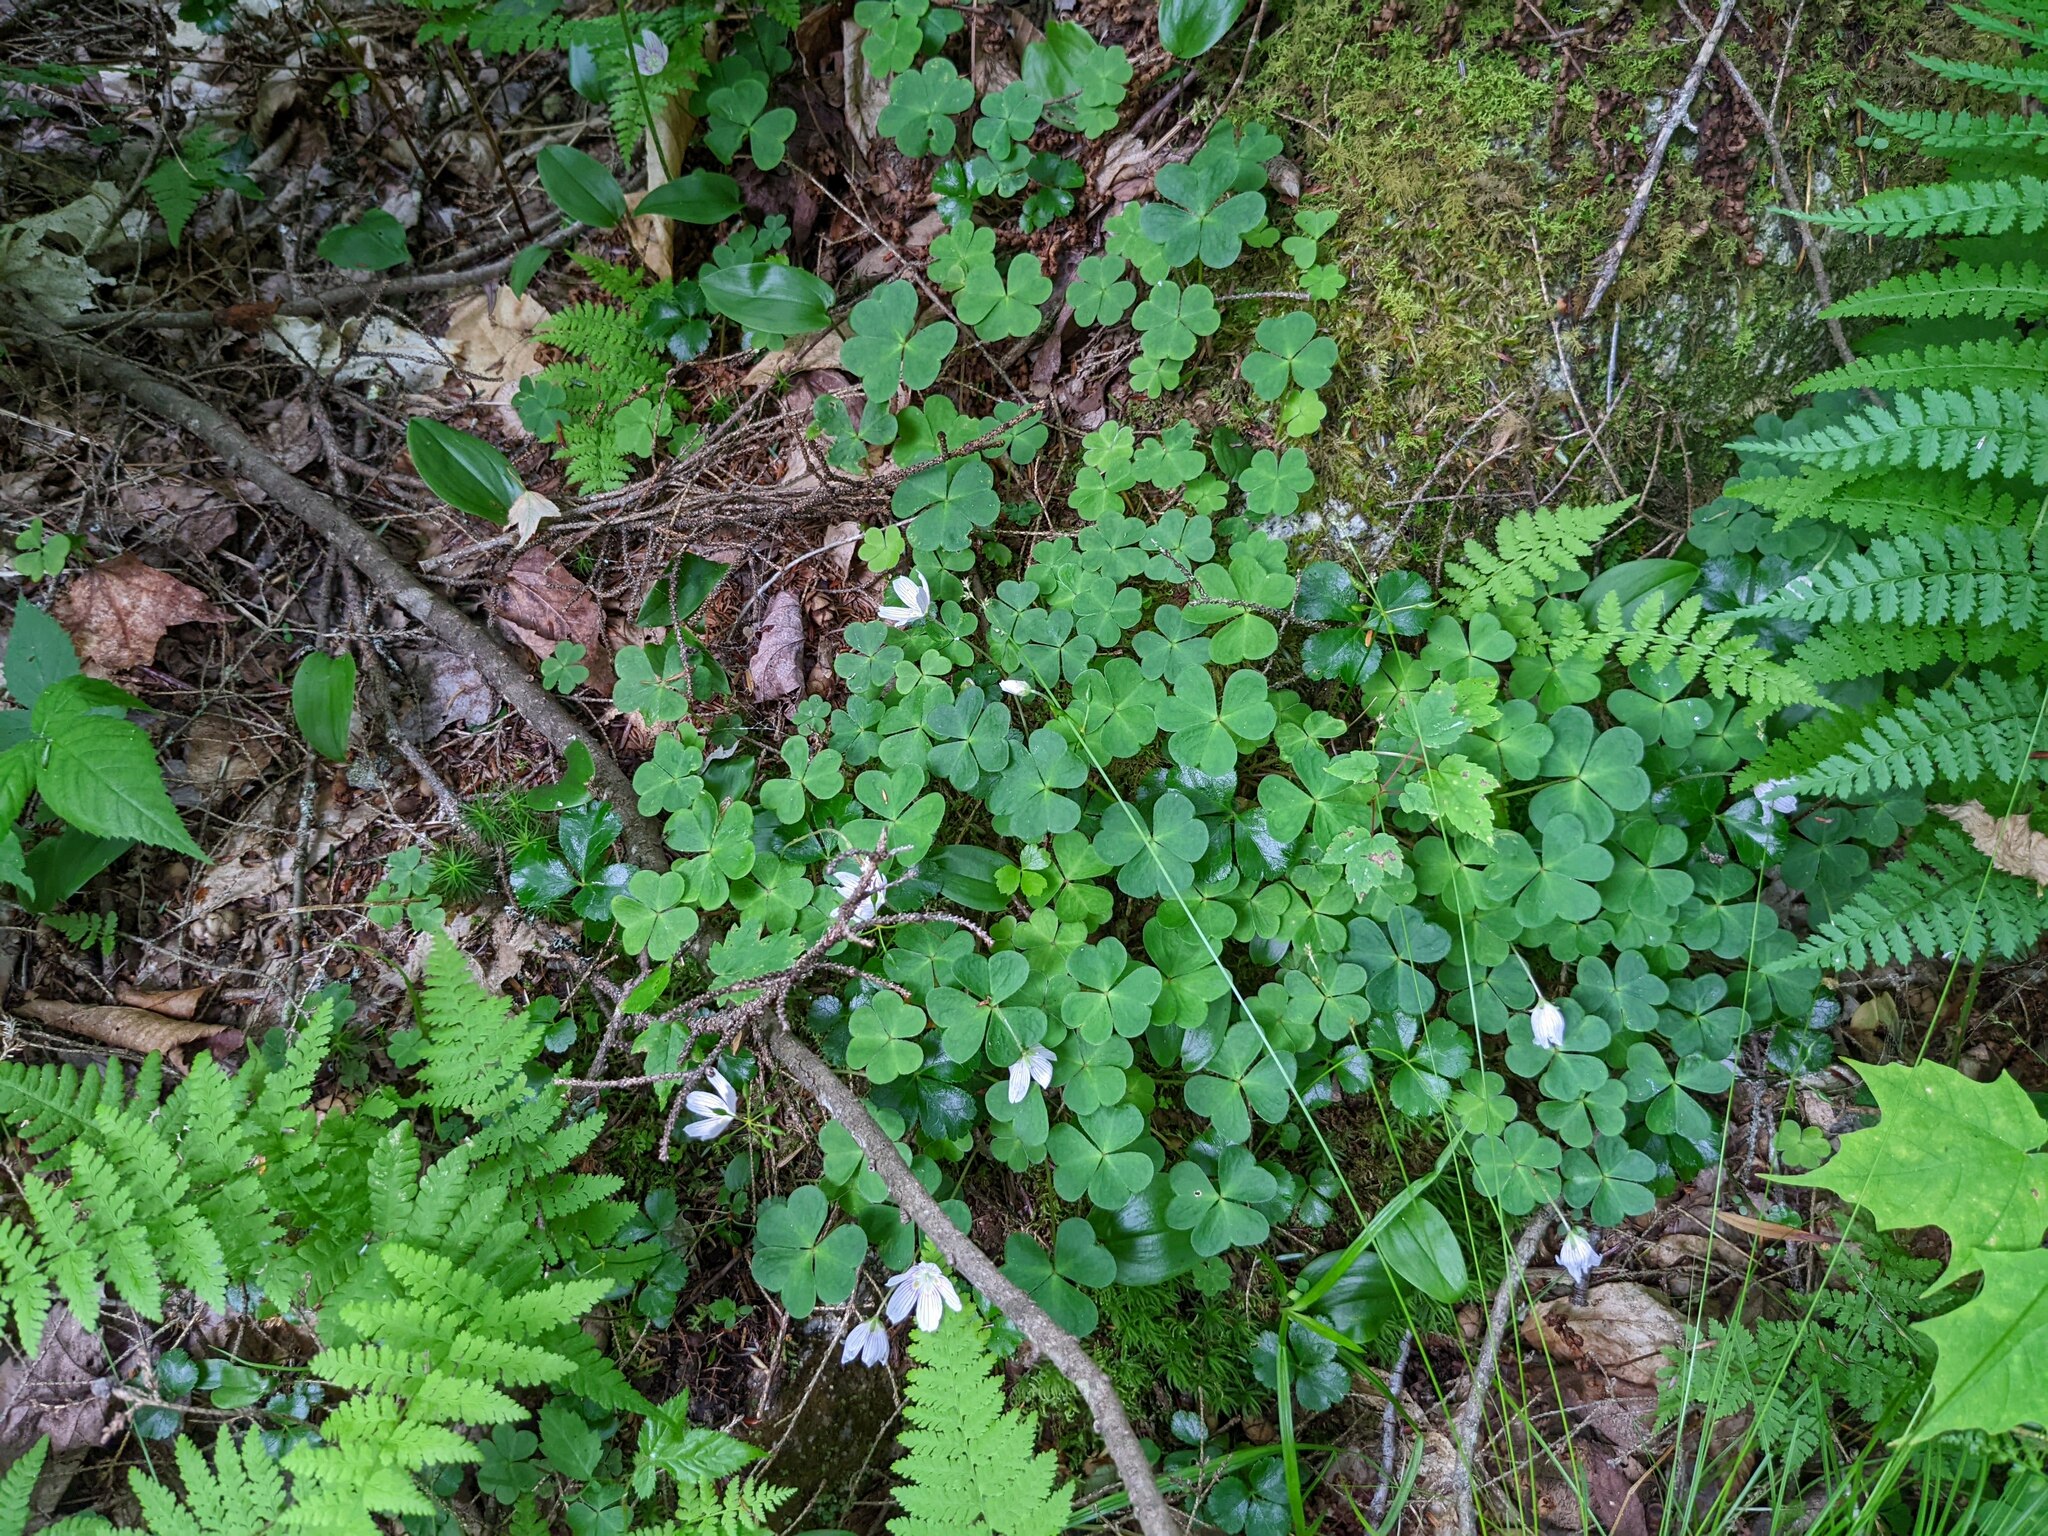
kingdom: Plantae
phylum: Tracheophyta
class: Magnoliopsida
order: Oxalidales
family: Oxalidaceae
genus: Oxalis
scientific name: Oxalis montana
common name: American wood-sorrel
